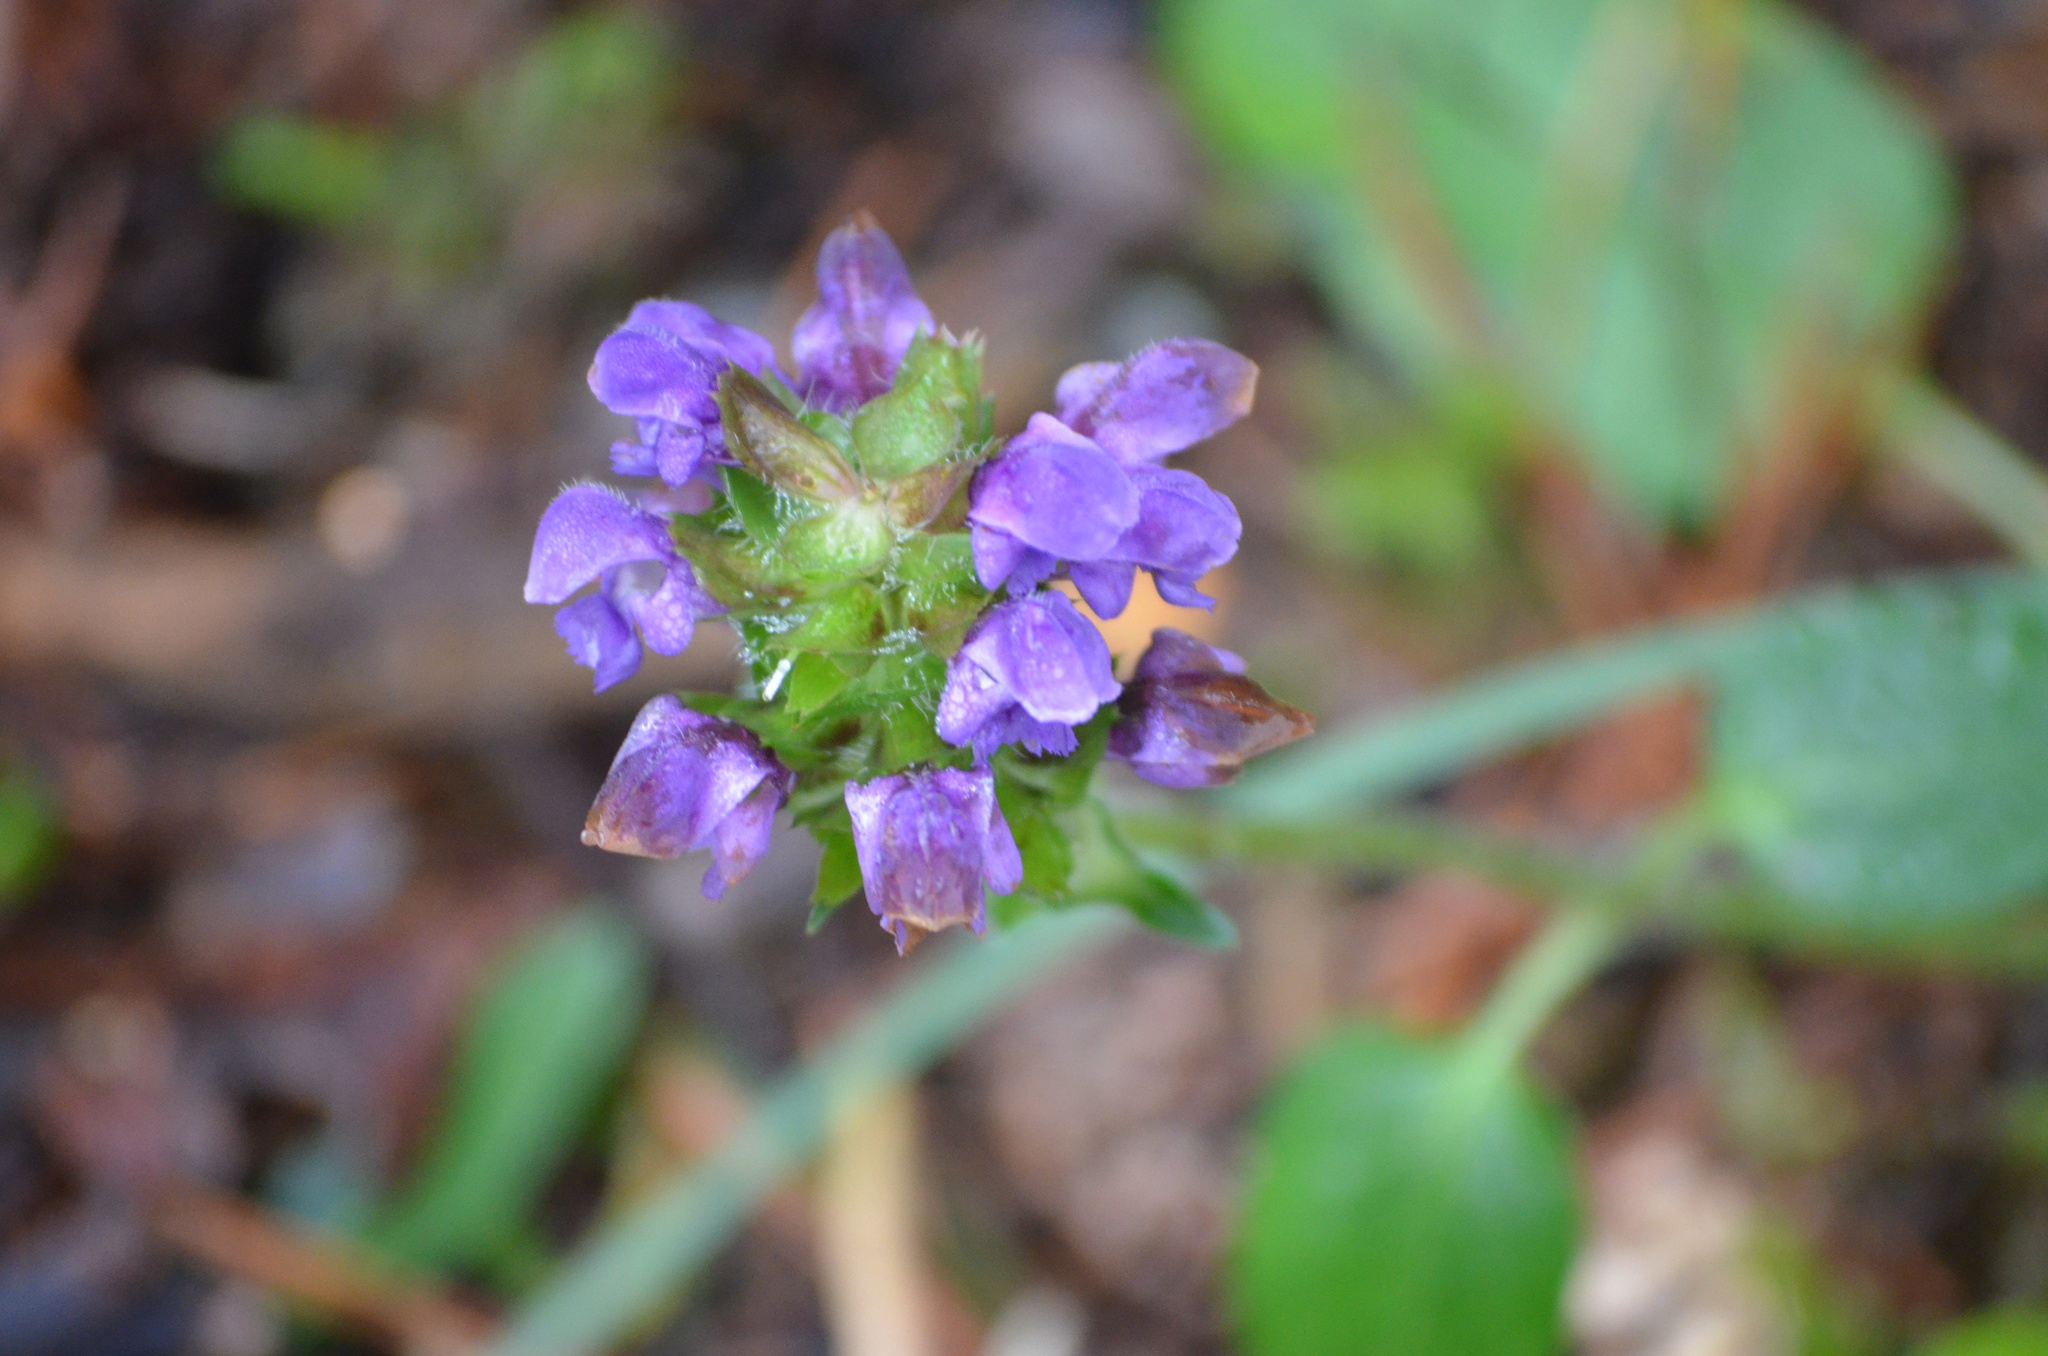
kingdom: Plantae
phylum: Tracheophyta
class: Magnoliopsida
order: Lamiales
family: Lamiaceae
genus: Prunella
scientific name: Prunella vulgaris
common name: Heal-all
